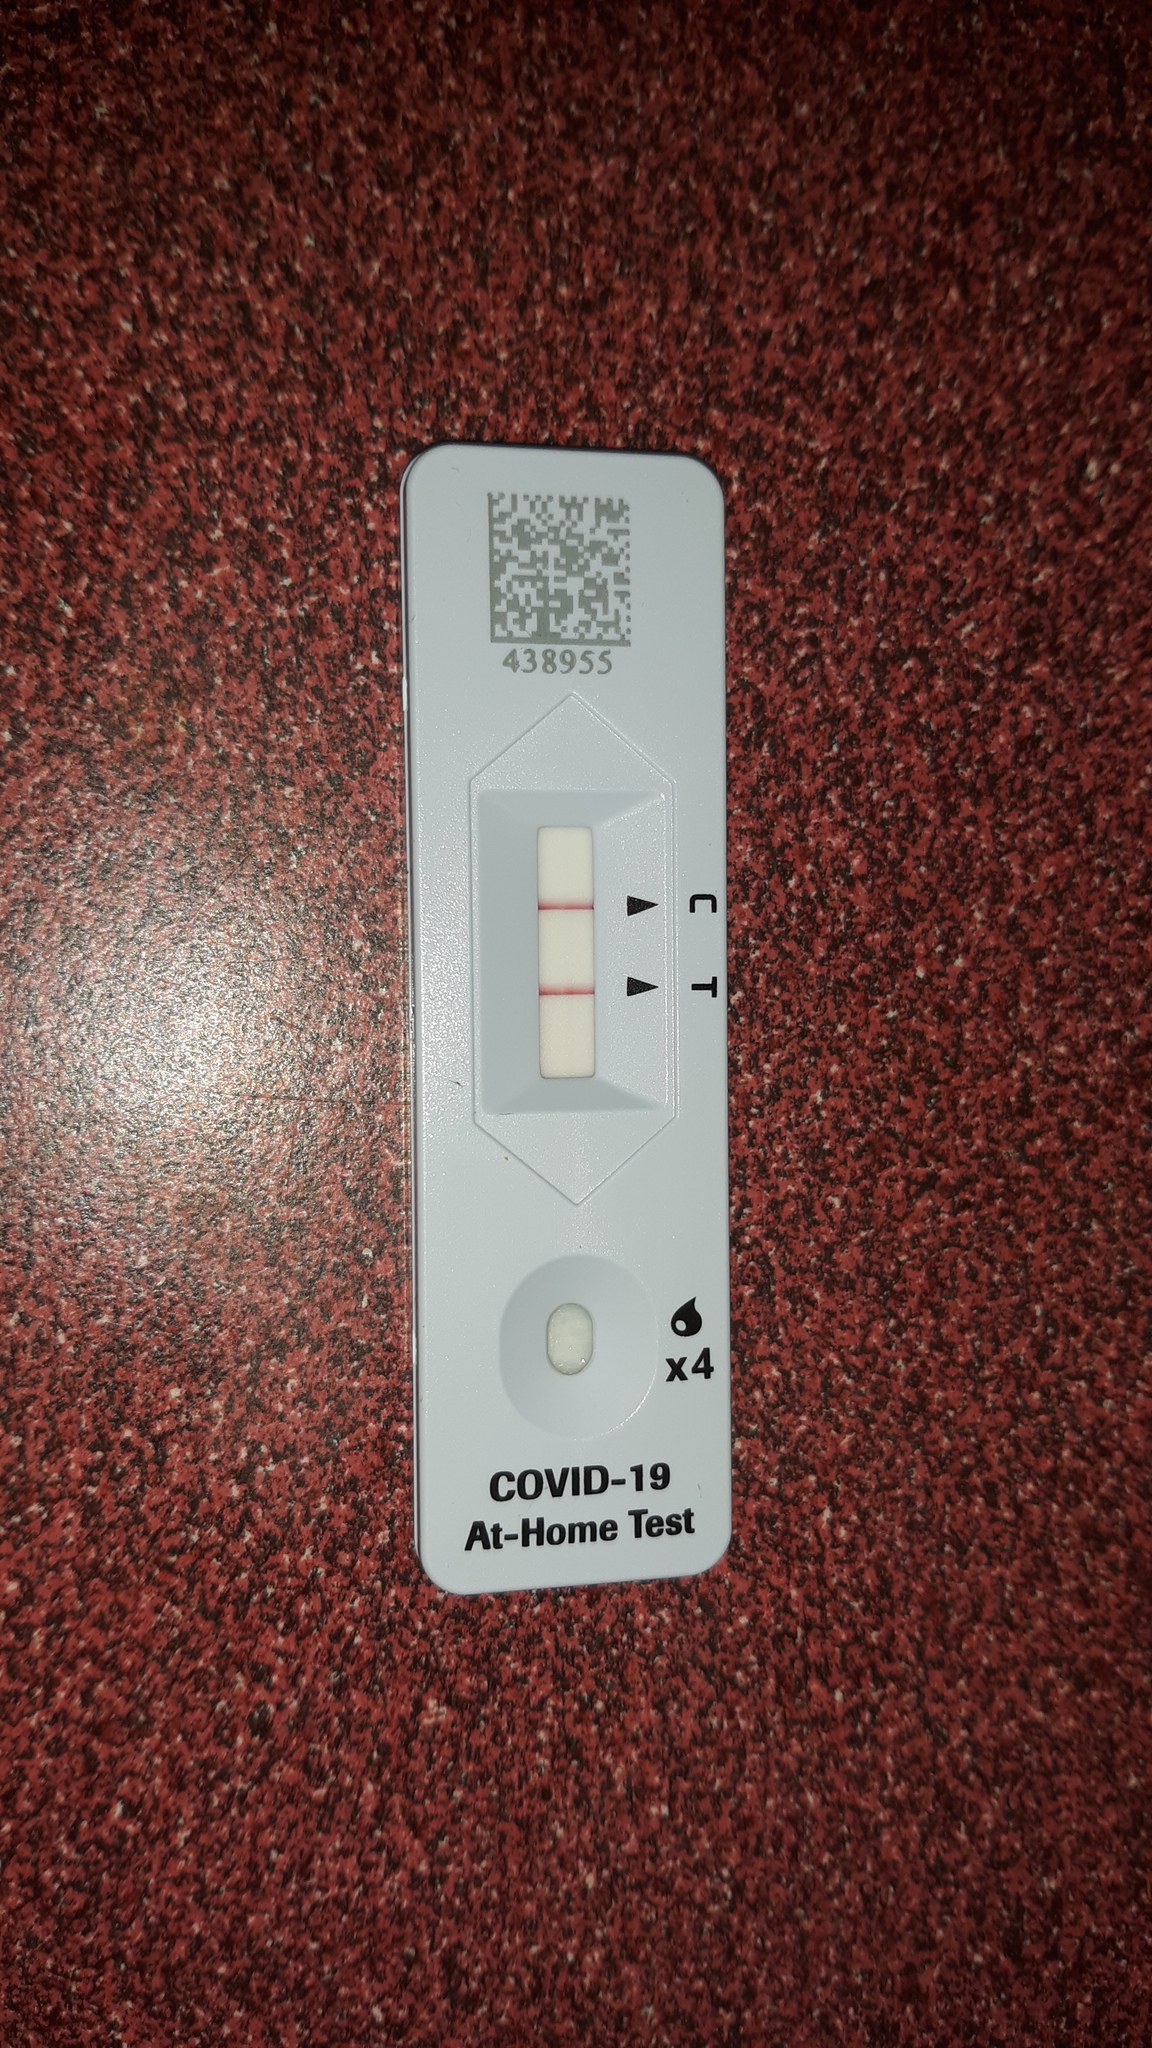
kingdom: Viruses
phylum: Pisuviricota
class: Pisoniviricetes
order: Nidovirales
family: Coronaviridae
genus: Betacoronavirus
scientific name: Betacoronavirus
